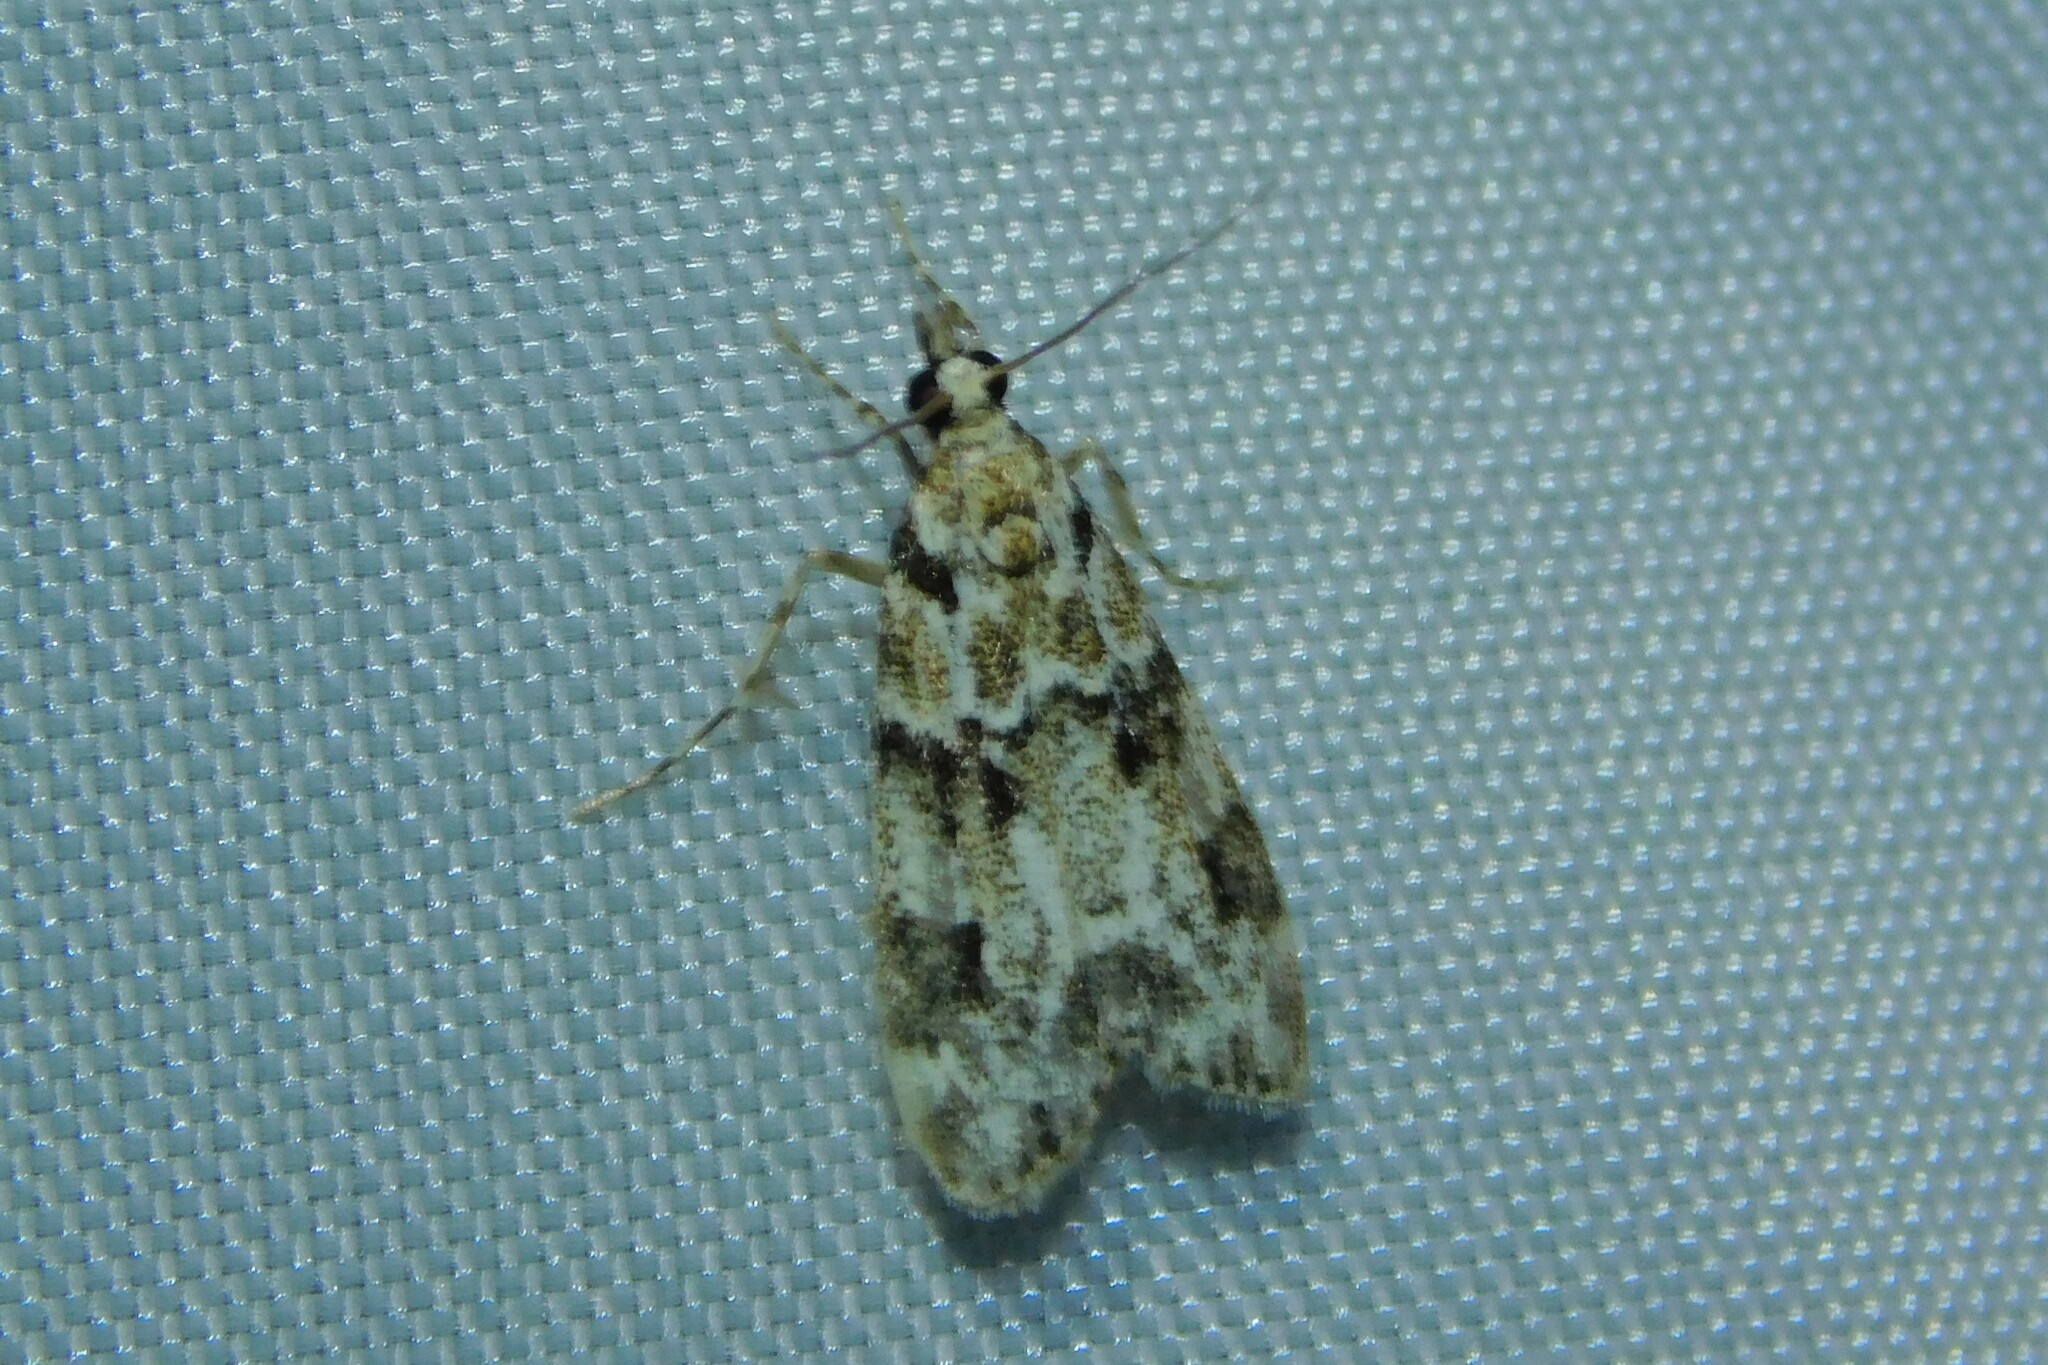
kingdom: Animalia
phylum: Arthropoda
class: Insecta
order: Lepidoptera
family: Crambidae
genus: Eudonia
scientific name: Eudonia delunella
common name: Pied grey
